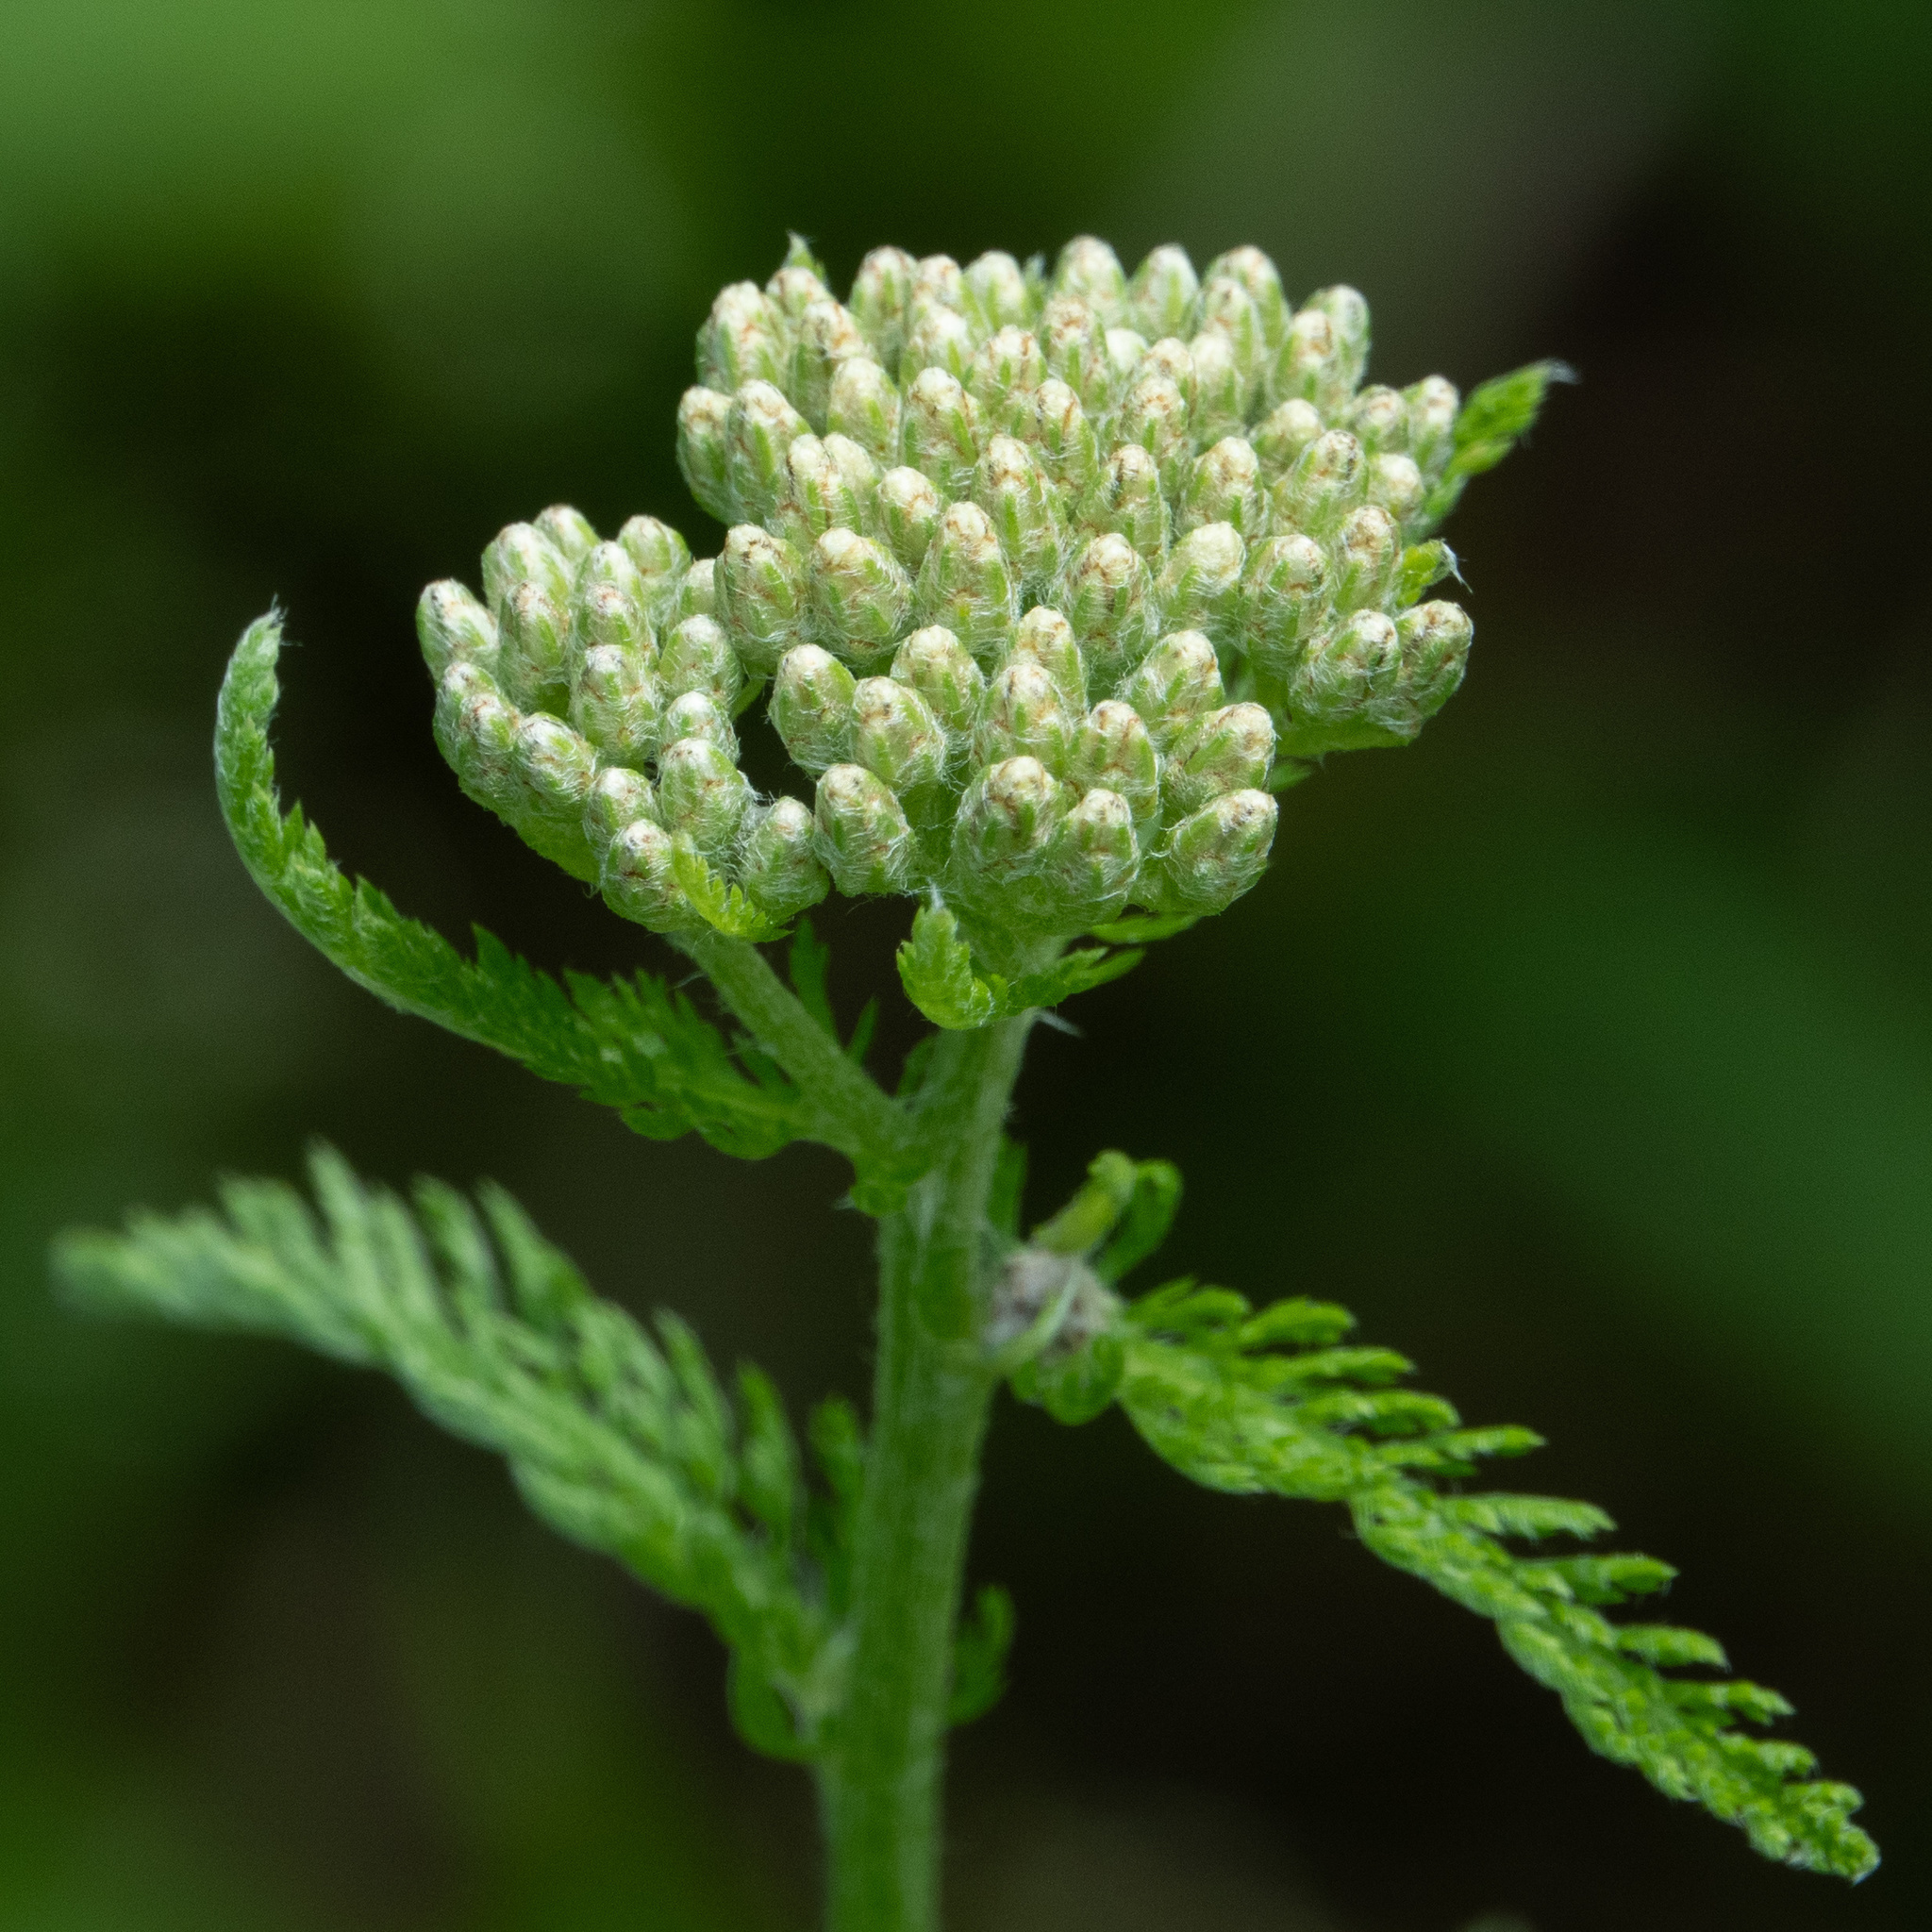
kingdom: Plantae
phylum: Tracheophyta
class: Magnoliopsida
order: Asterales
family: Asteraceae
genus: Achillea
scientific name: Achillea millefolium
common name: Yarrow
